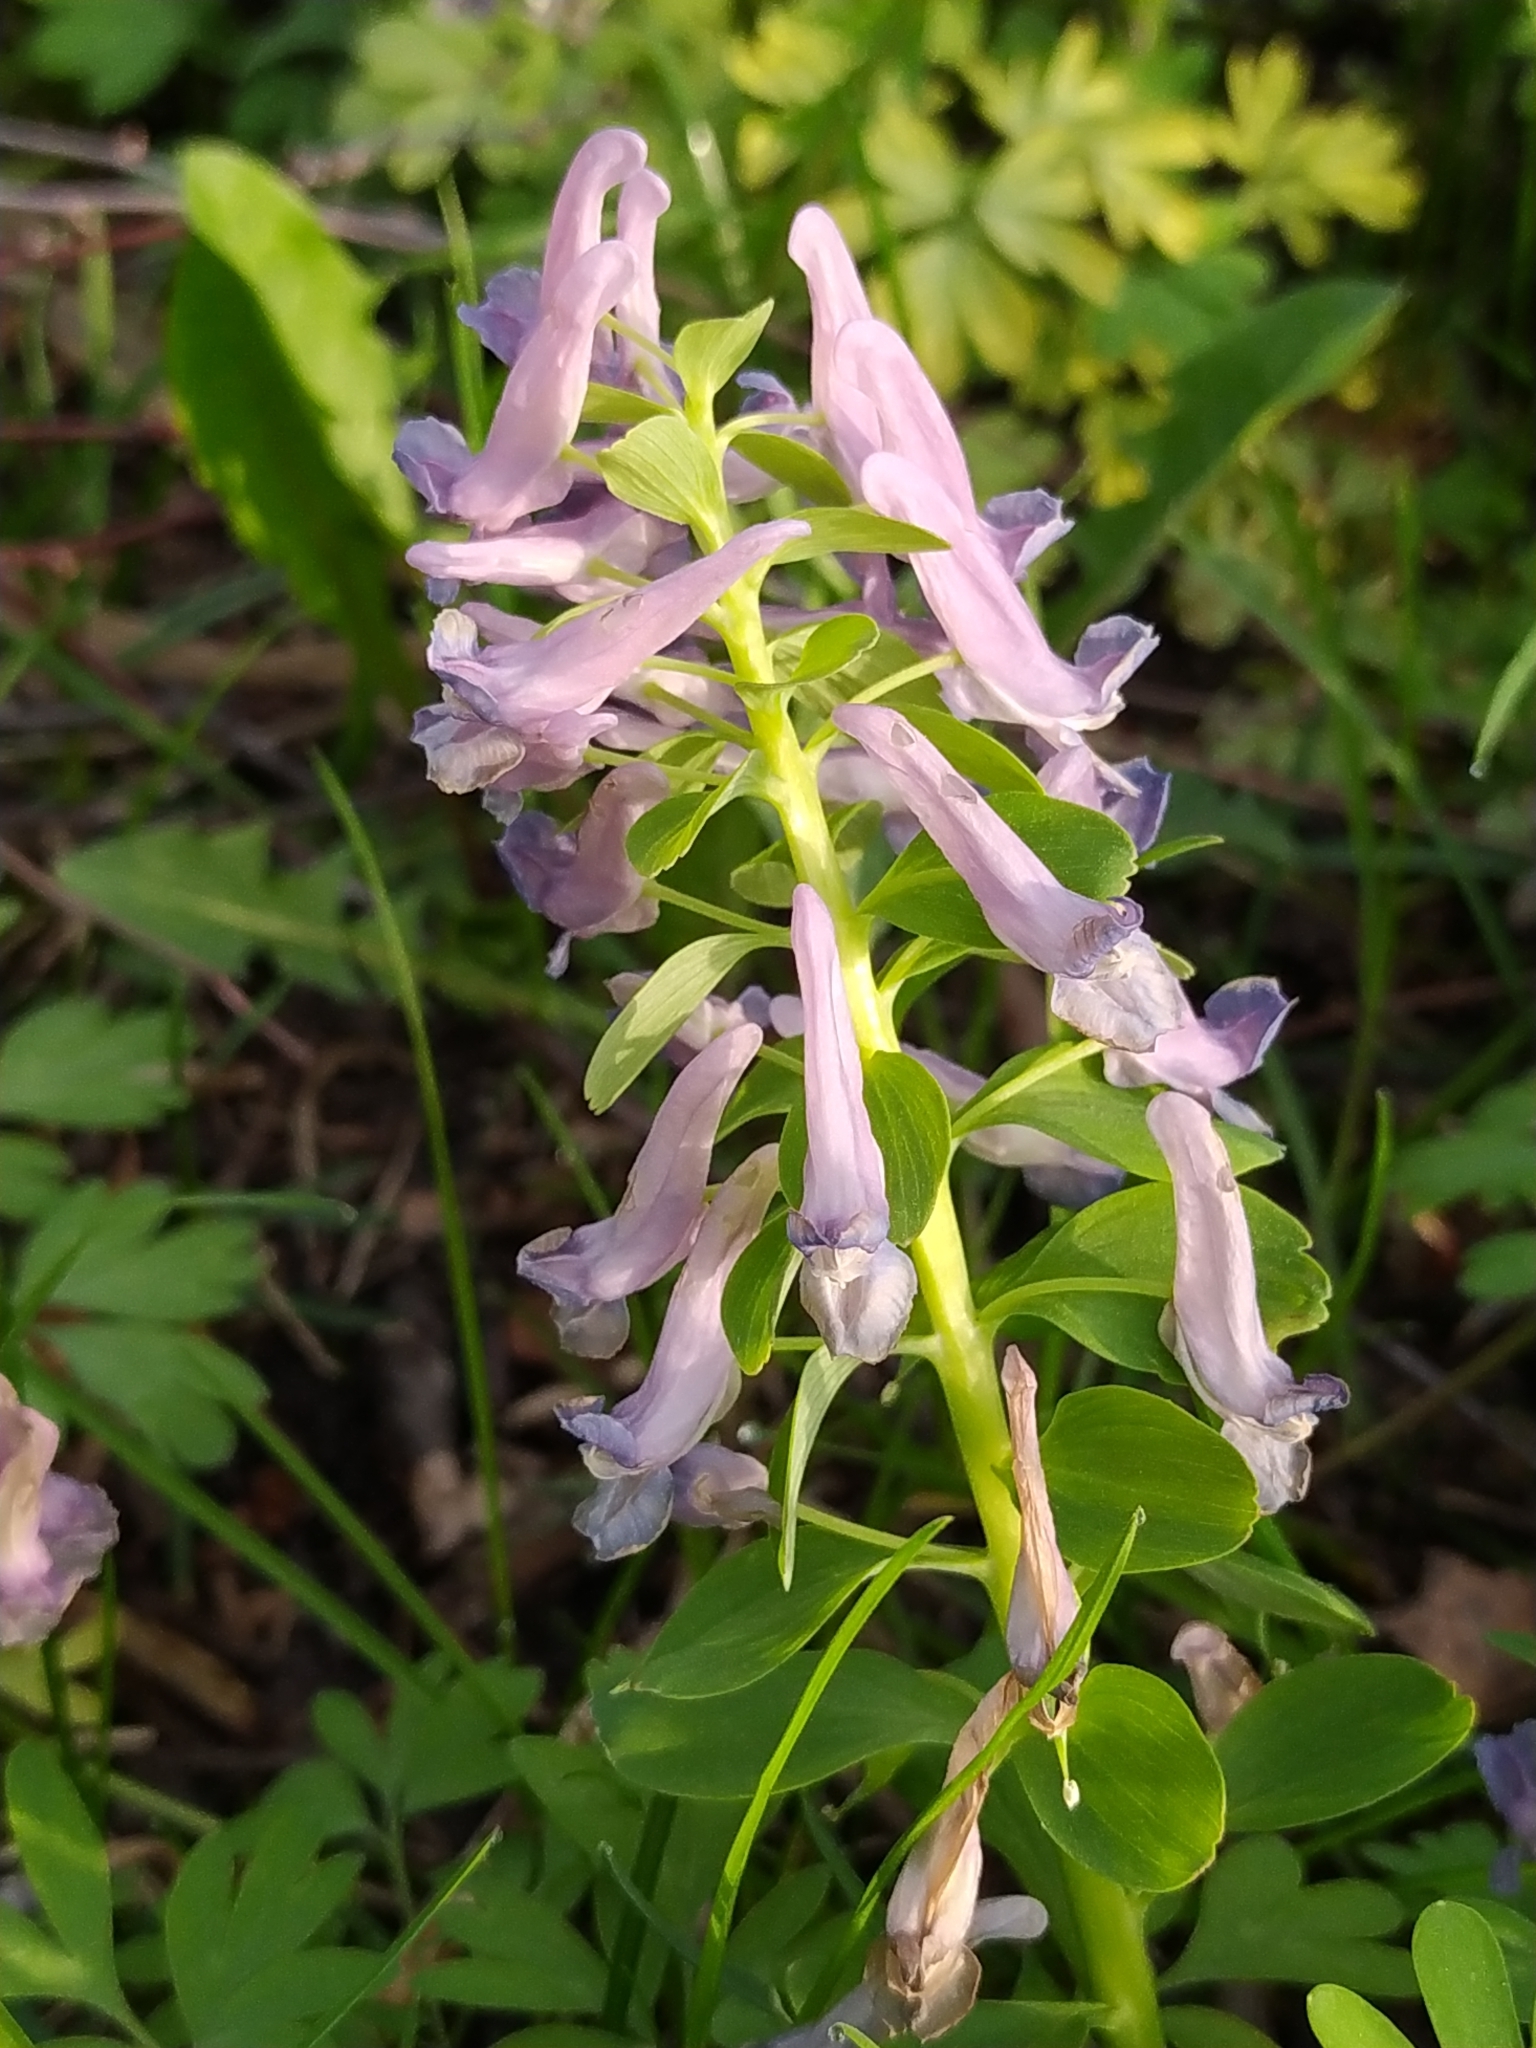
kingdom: Plantae
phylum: Tracheophyta
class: Magnoliopsida
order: Ranunculales
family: Papaveraceae
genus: Corydalis
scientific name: Corydalis solida
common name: Bird-in-a-bush
